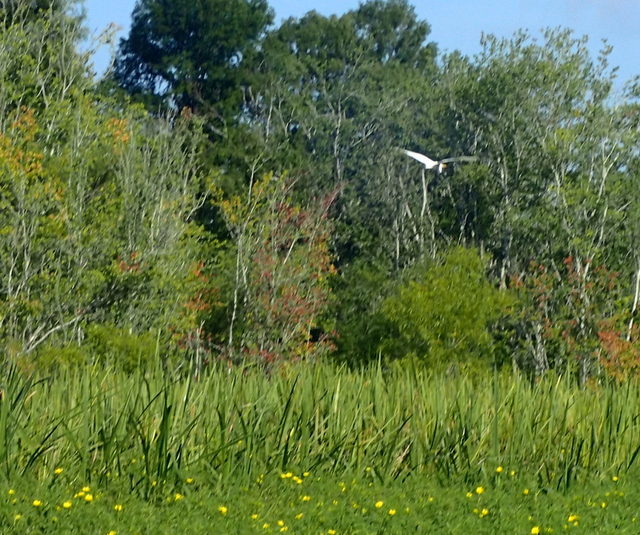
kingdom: Animalia
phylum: Chordata
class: Aves
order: Pelecaniformes
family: Ardeidae
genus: Ardea
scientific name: Ardea alba
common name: Great egret
